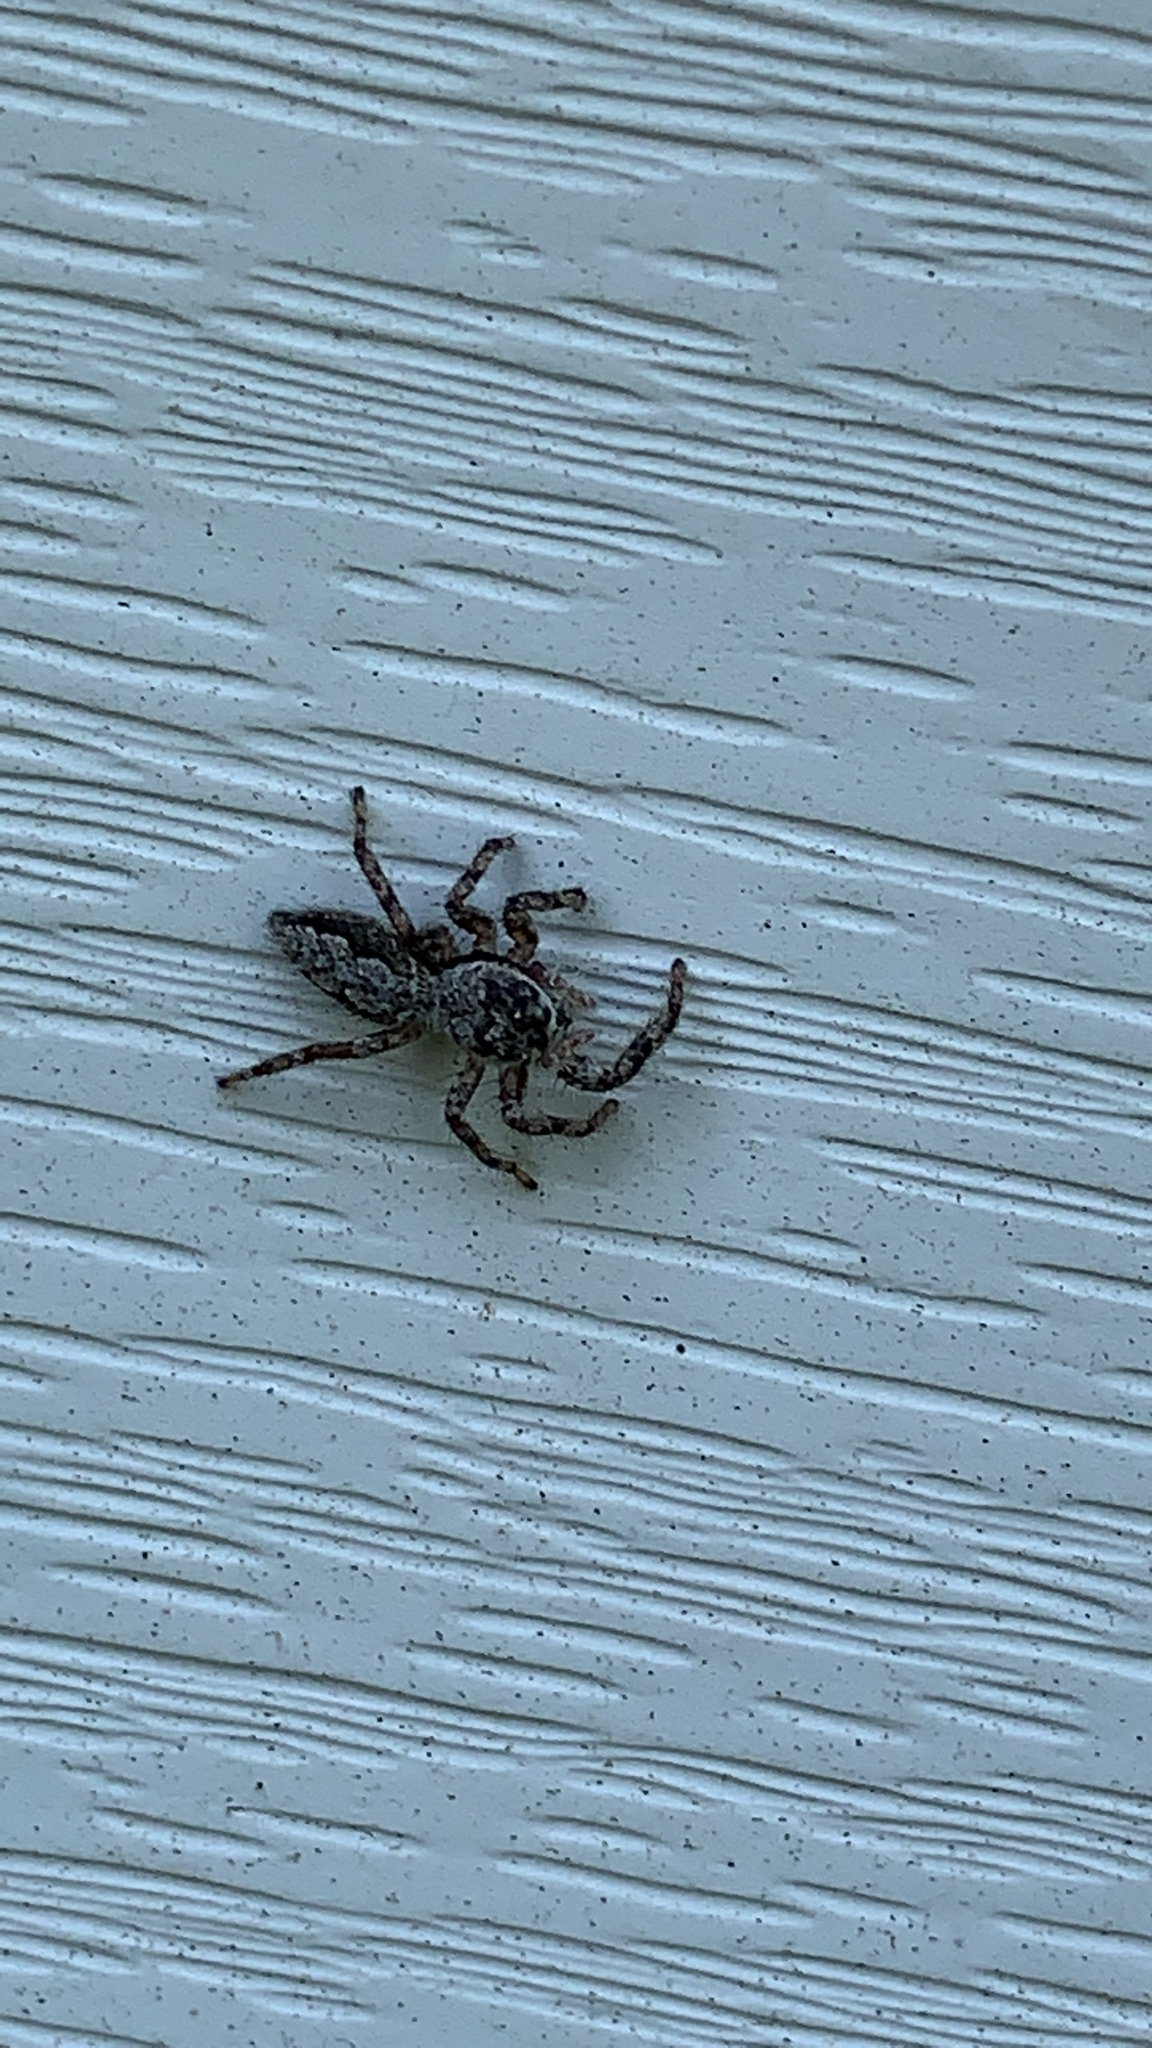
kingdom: Animalia
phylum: Arthropoda
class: Arachnida
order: Araneae
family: Salticidae
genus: Platycryptus
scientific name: Platycryptus undatus
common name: Tan jumping spider
